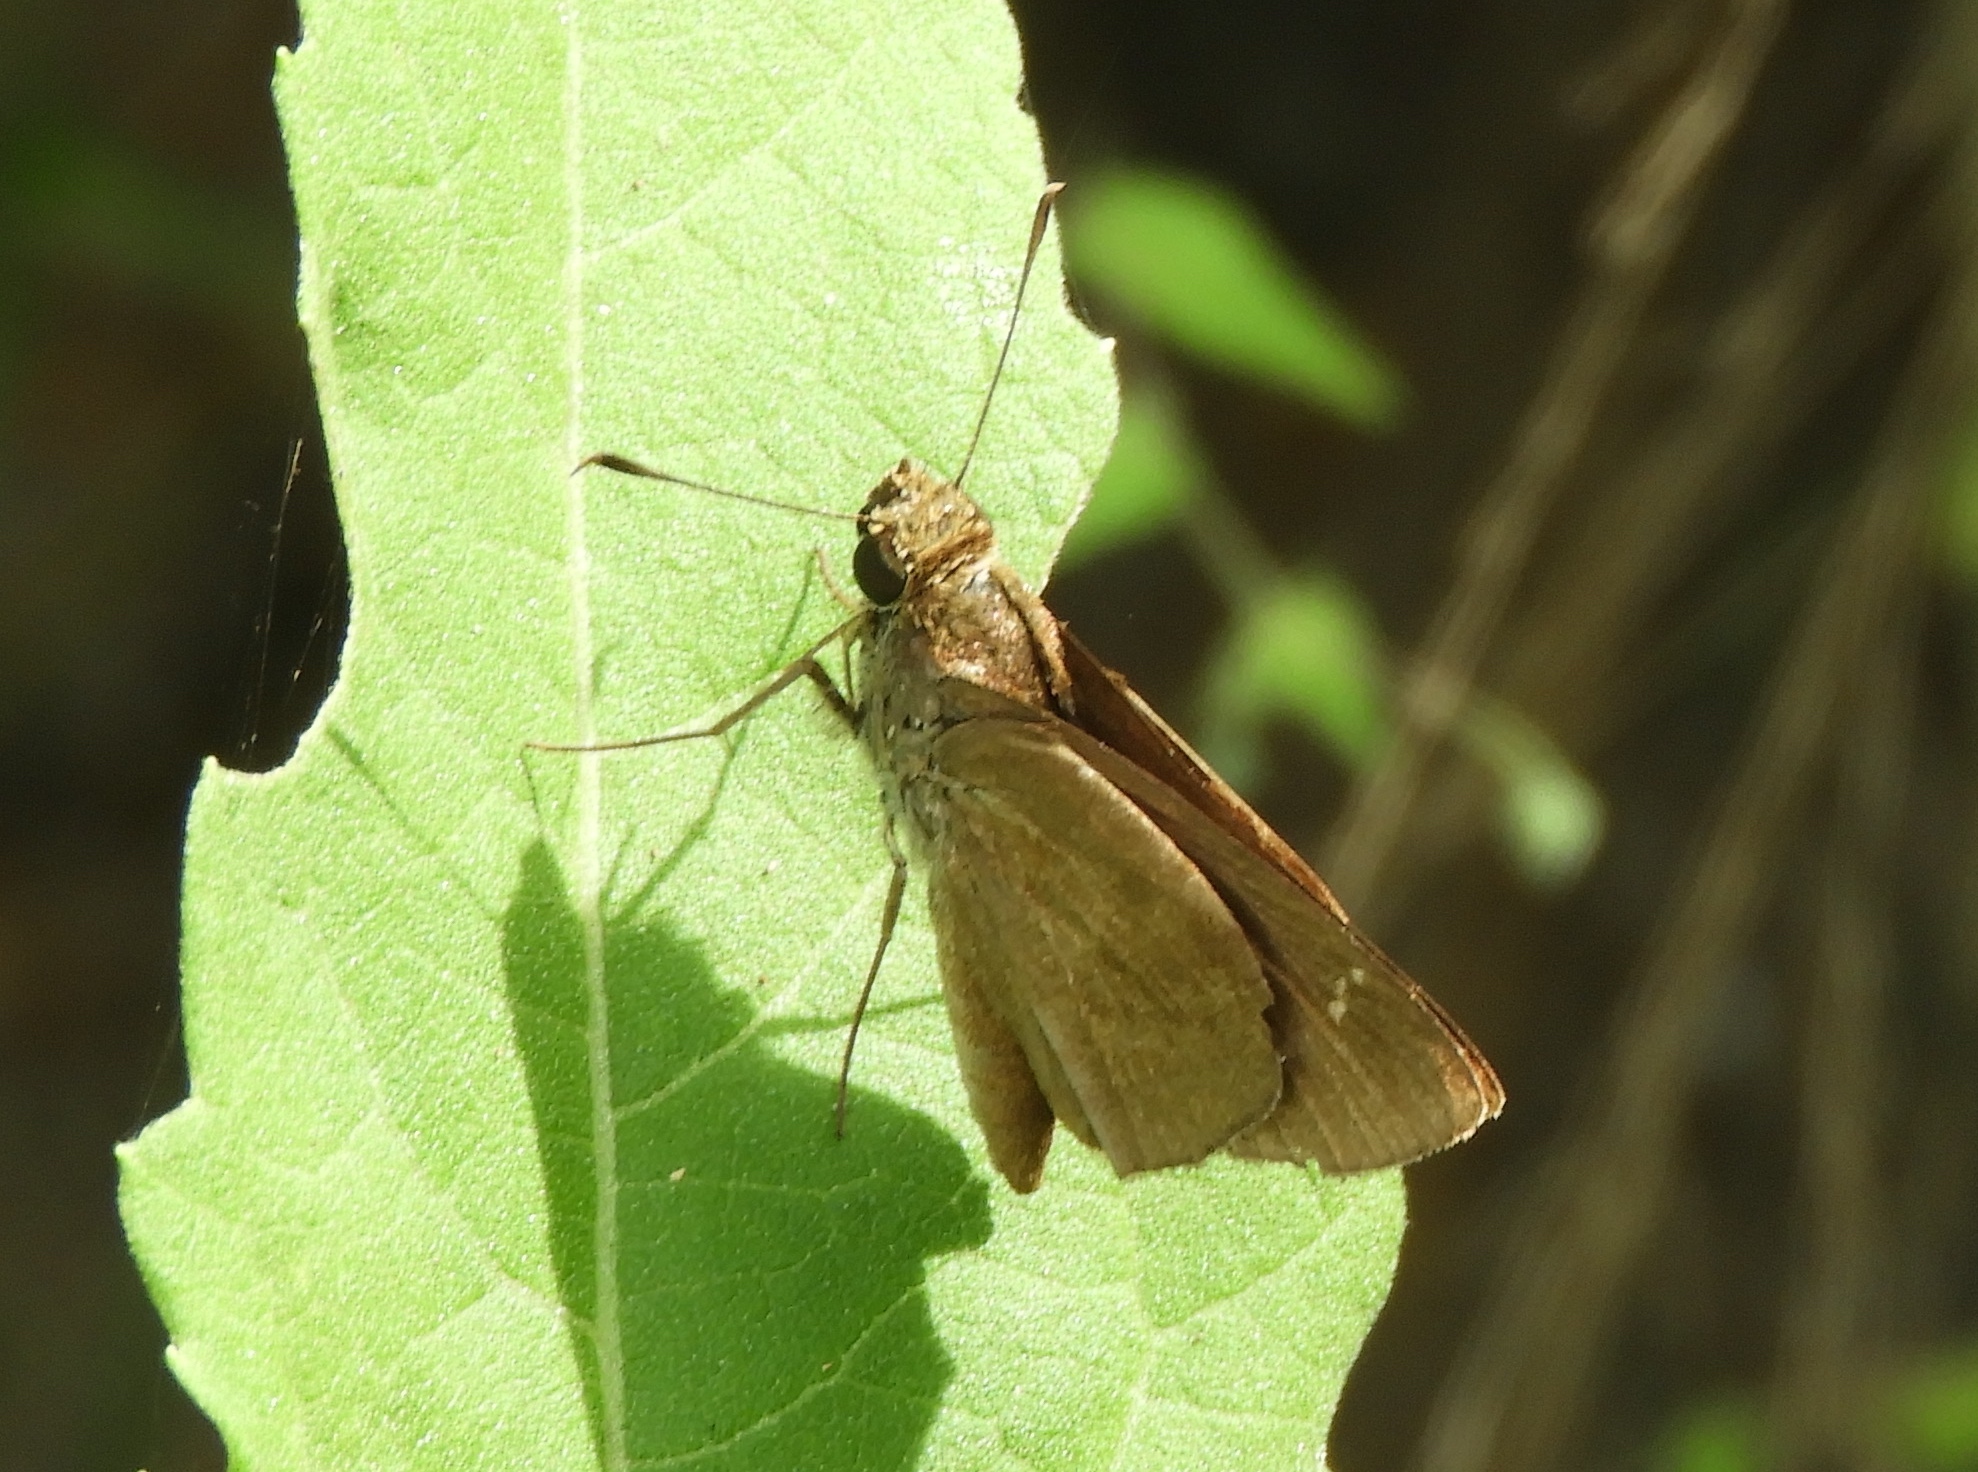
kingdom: Animalia
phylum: Arthropoda
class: Insecta
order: Lepidoptera
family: Hesperiidae
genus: Lerodea
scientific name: Lerodea eufala
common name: Eufala skipper
